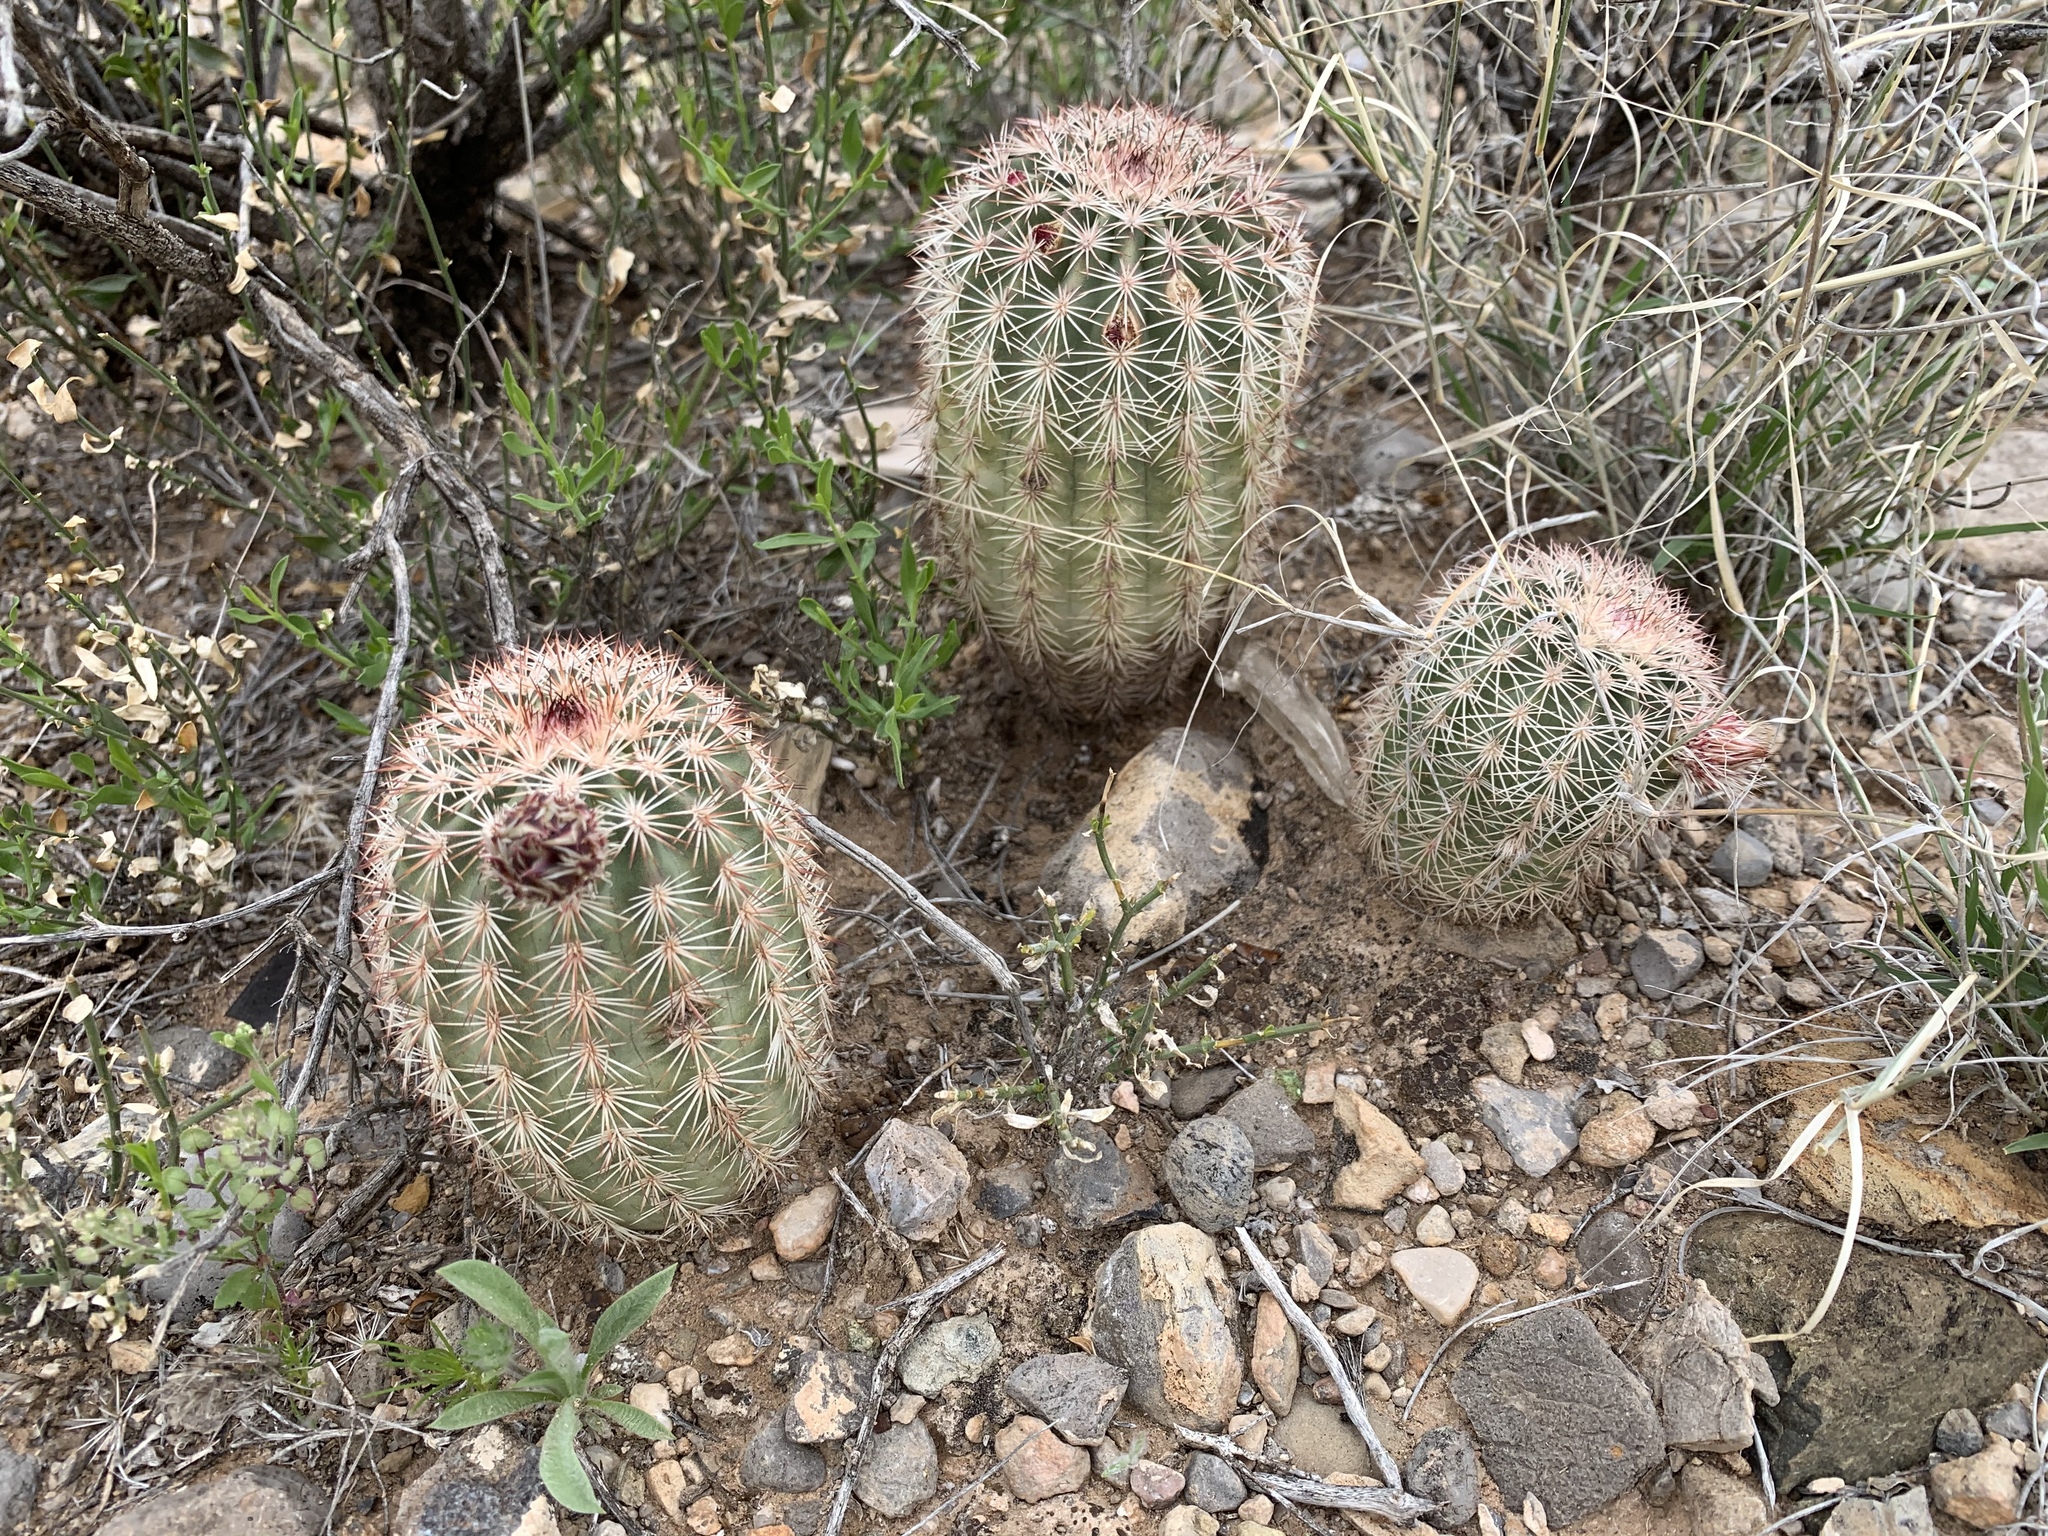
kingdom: Plantae
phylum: Tracheophyta
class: Magnoliopsida
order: Caryophyllales
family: Cactaceae
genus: Echinocereus
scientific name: Echinocereus dasyacanthus
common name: Spiny hedgehog cactus
